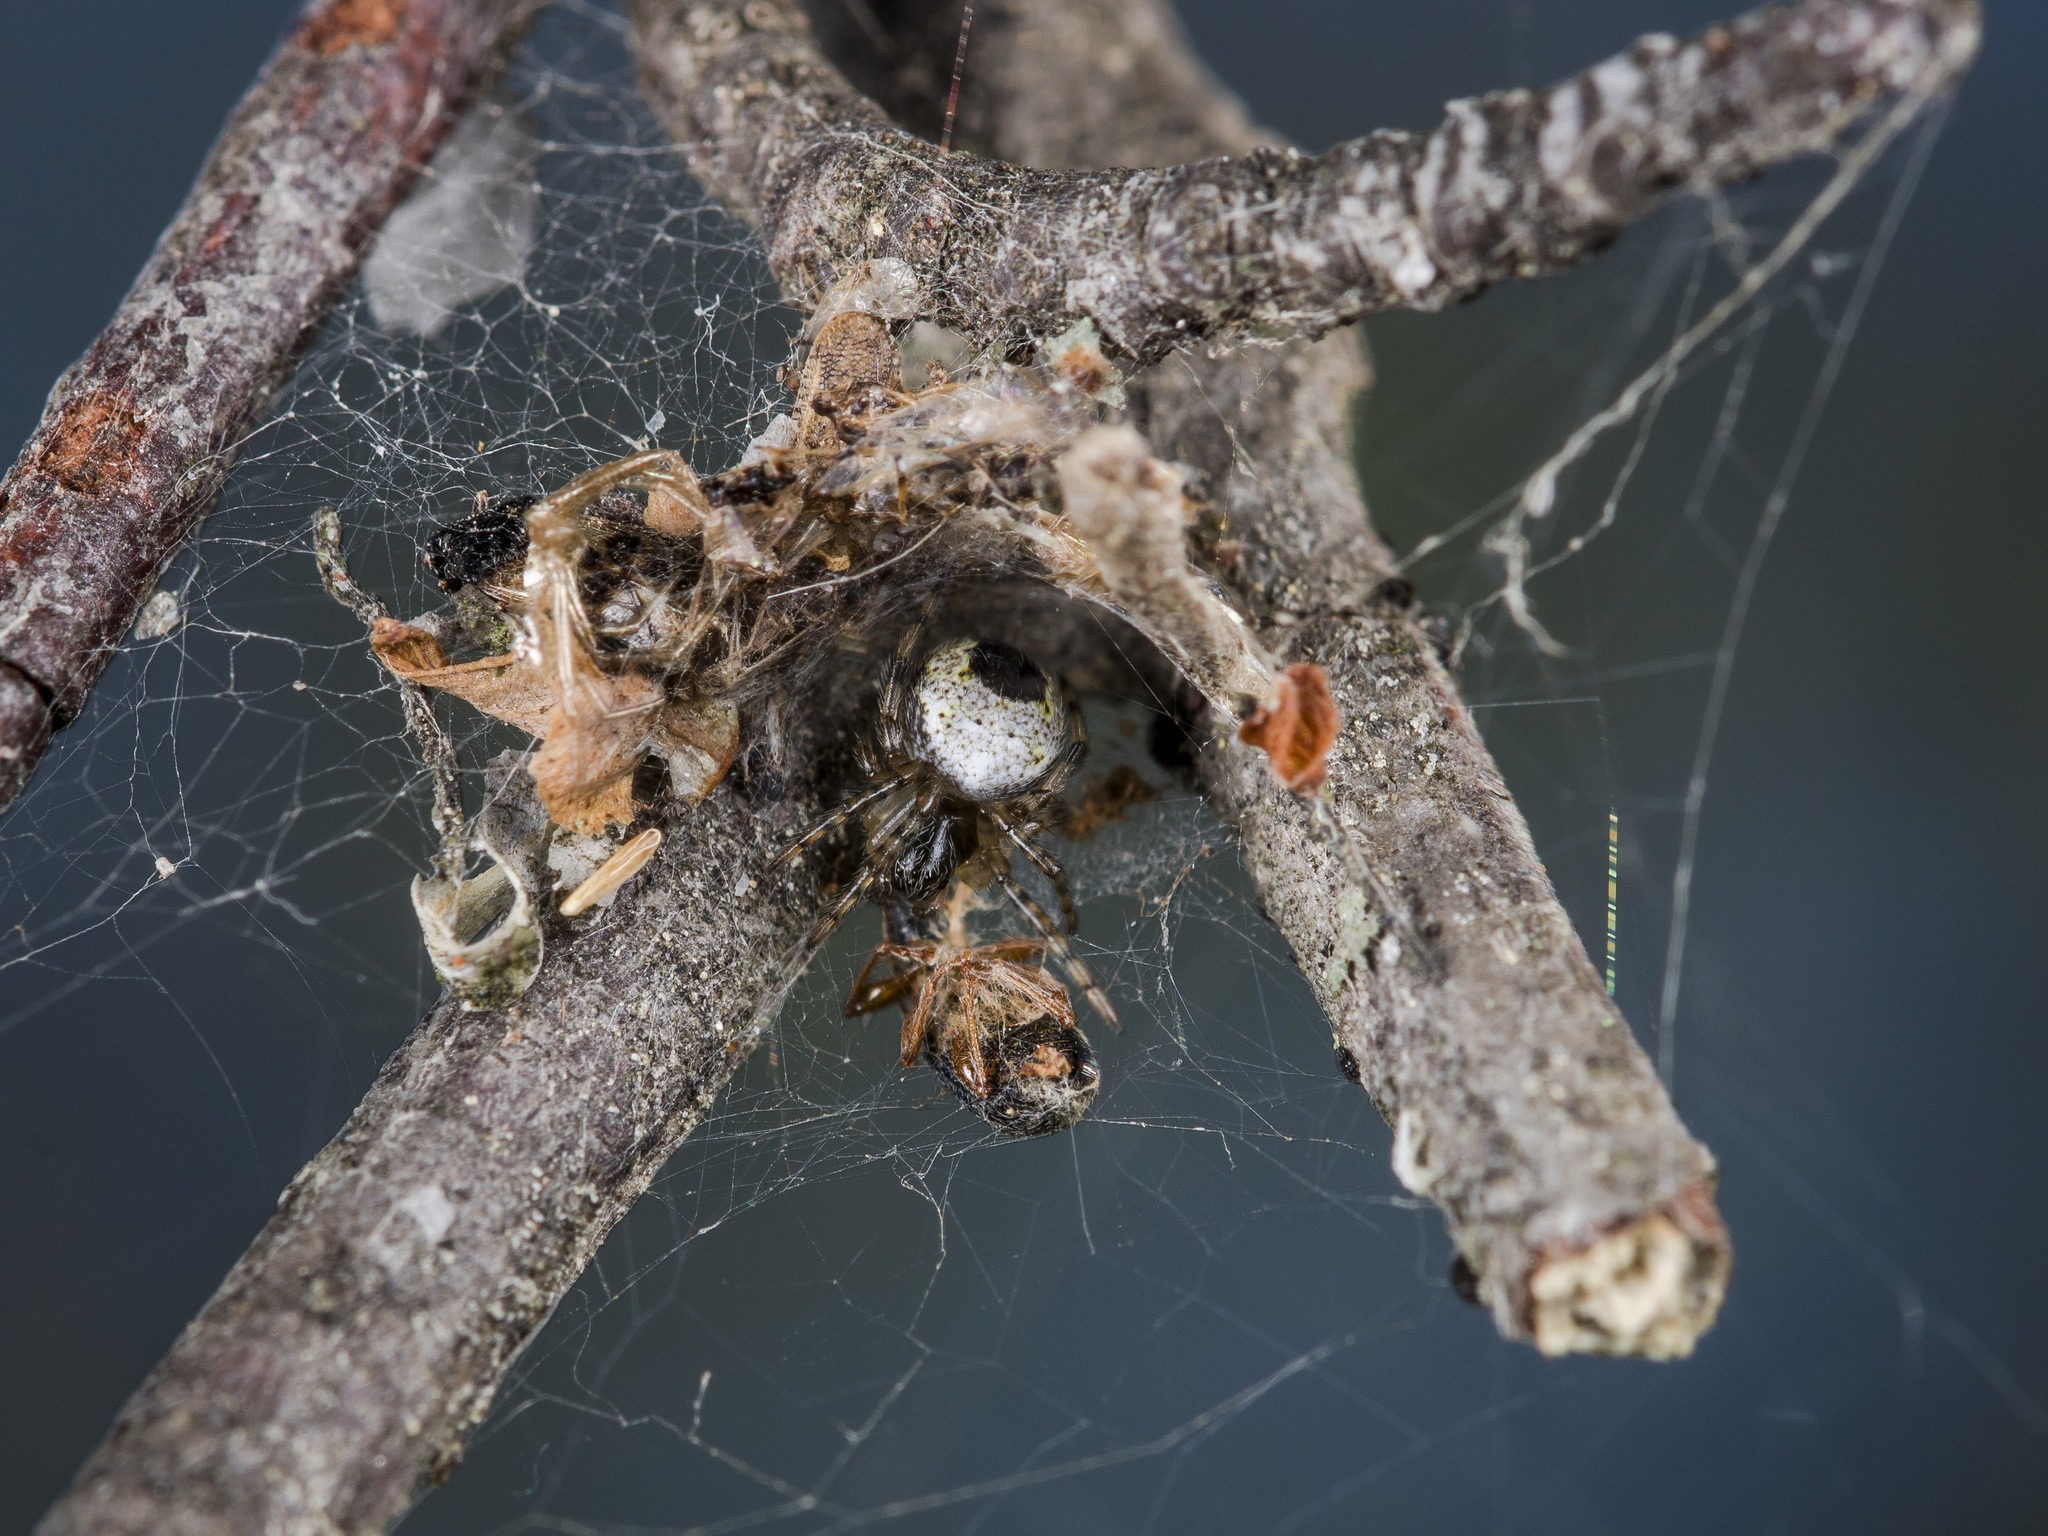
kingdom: Animalia
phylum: Arthropoda
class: Arachnida
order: Araneae
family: Araneidae
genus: Araneus
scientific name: Araneus marmoreus
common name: Marbled orbweaver
